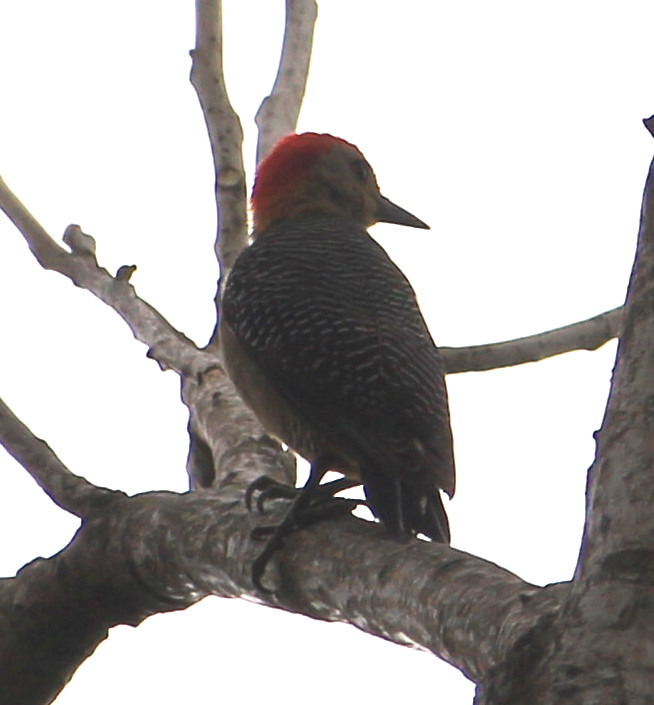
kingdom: Animalia
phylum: Chordata
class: Aves
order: Piciformes
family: Picidae
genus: Melanerpes
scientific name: Melanerpes aurifrons
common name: Golden-fronted woodpecker
